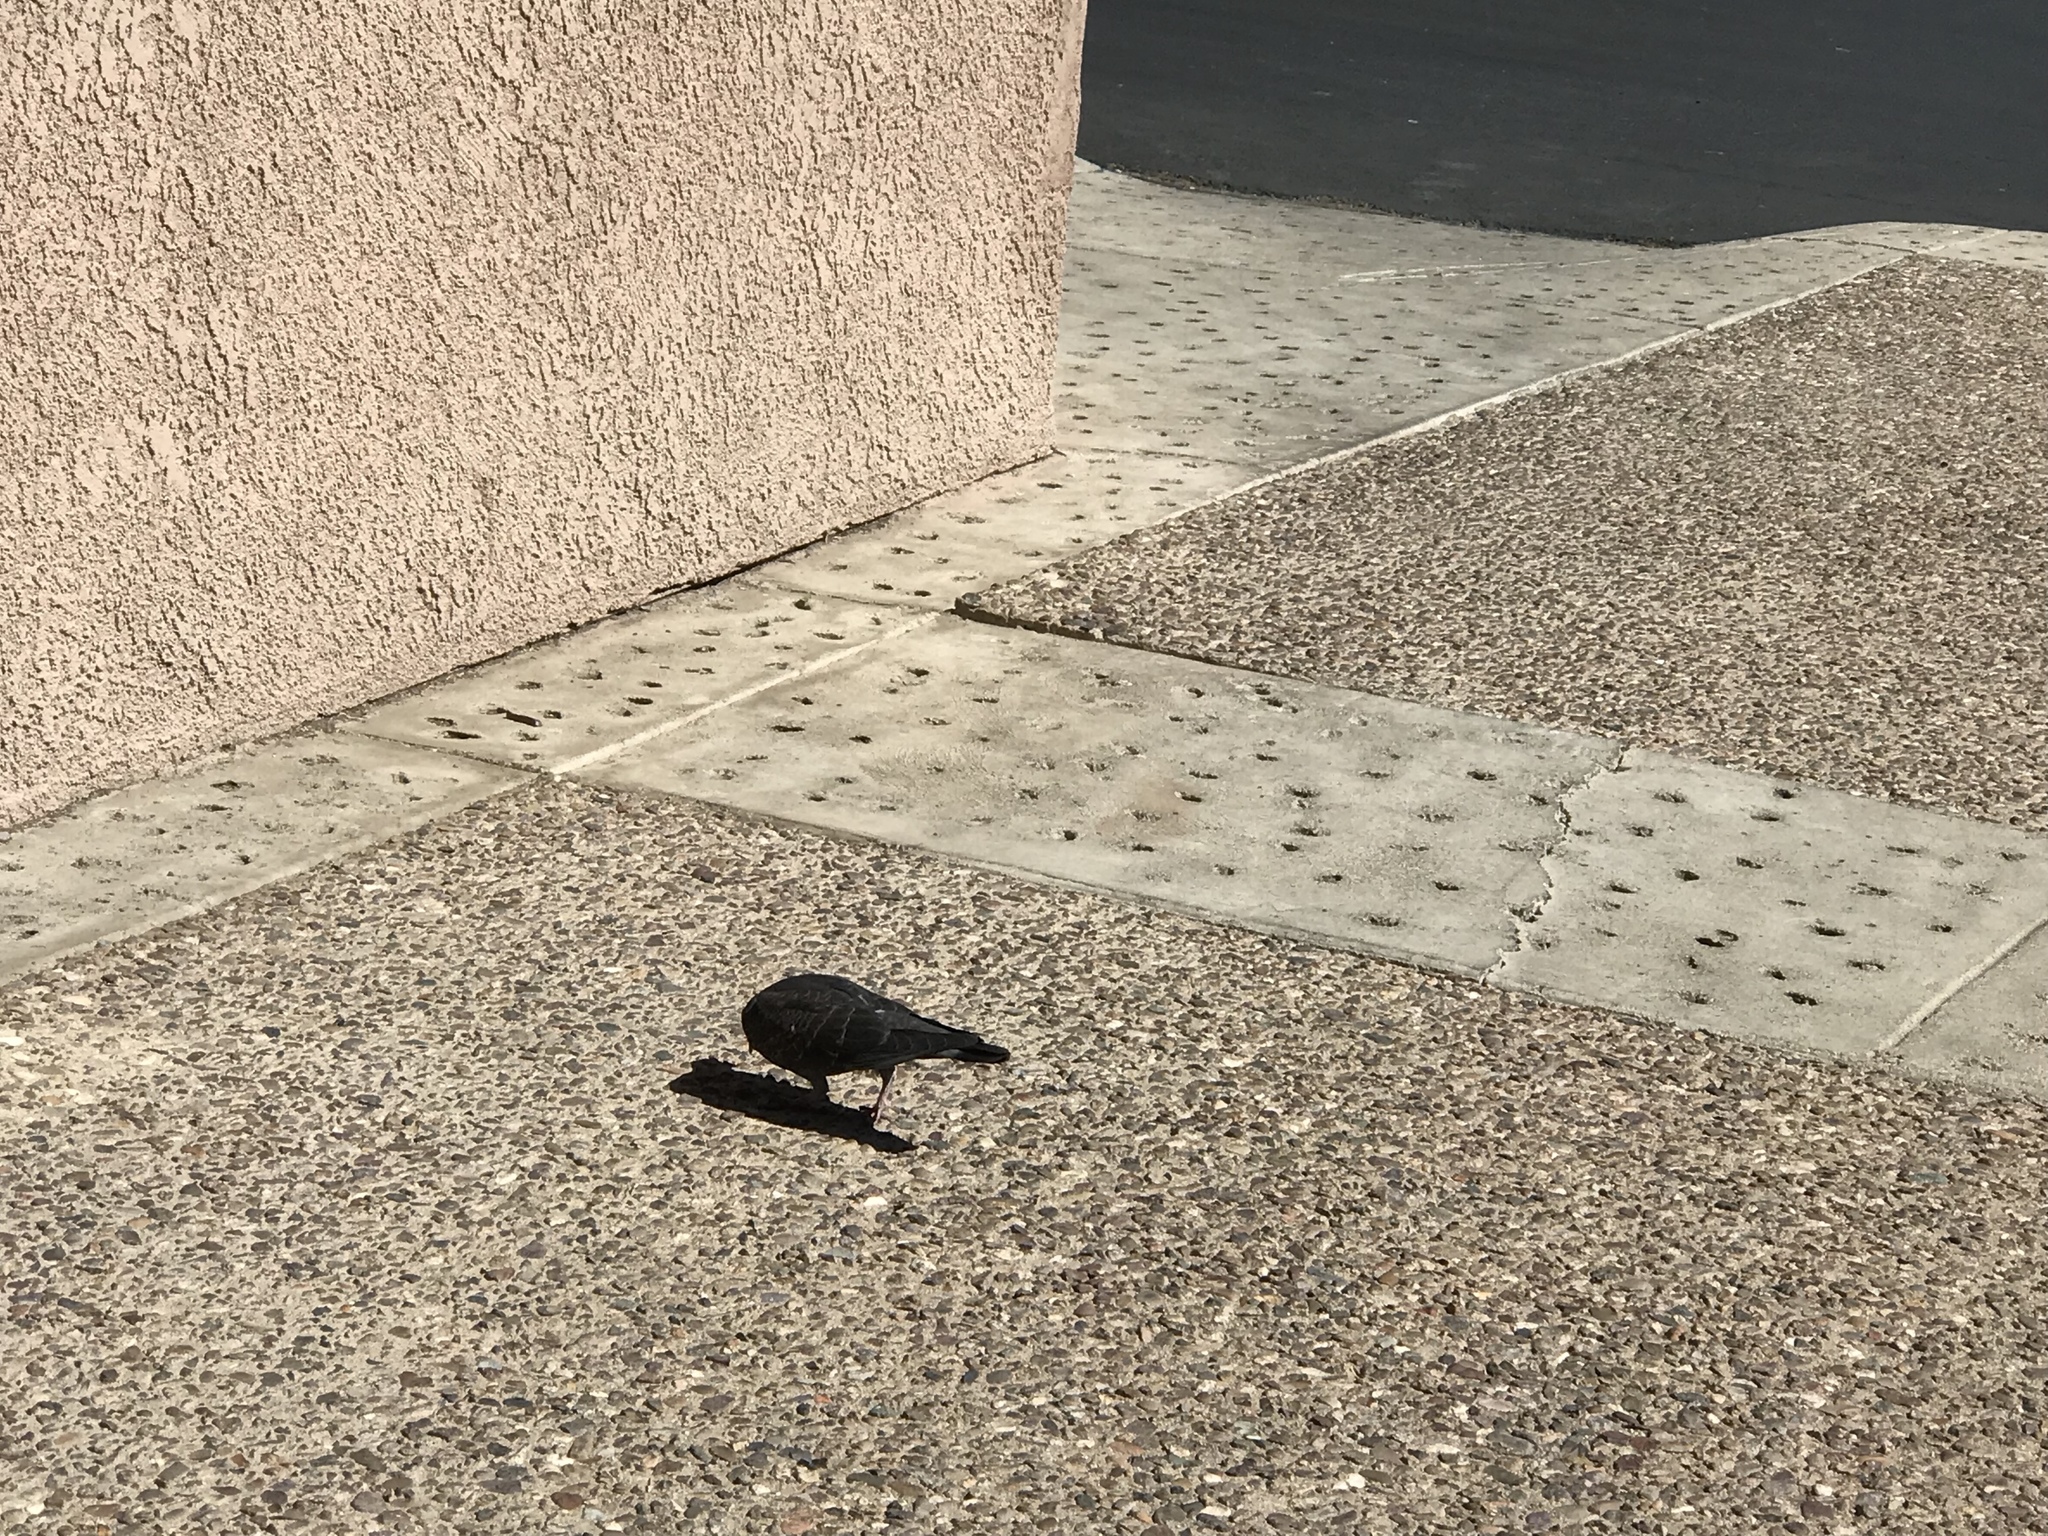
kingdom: Animalia
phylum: Chordata
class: Aves
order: Columbiformes
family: Columbidae
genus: Columba
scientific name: Columba livia
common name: Rock pigeon
